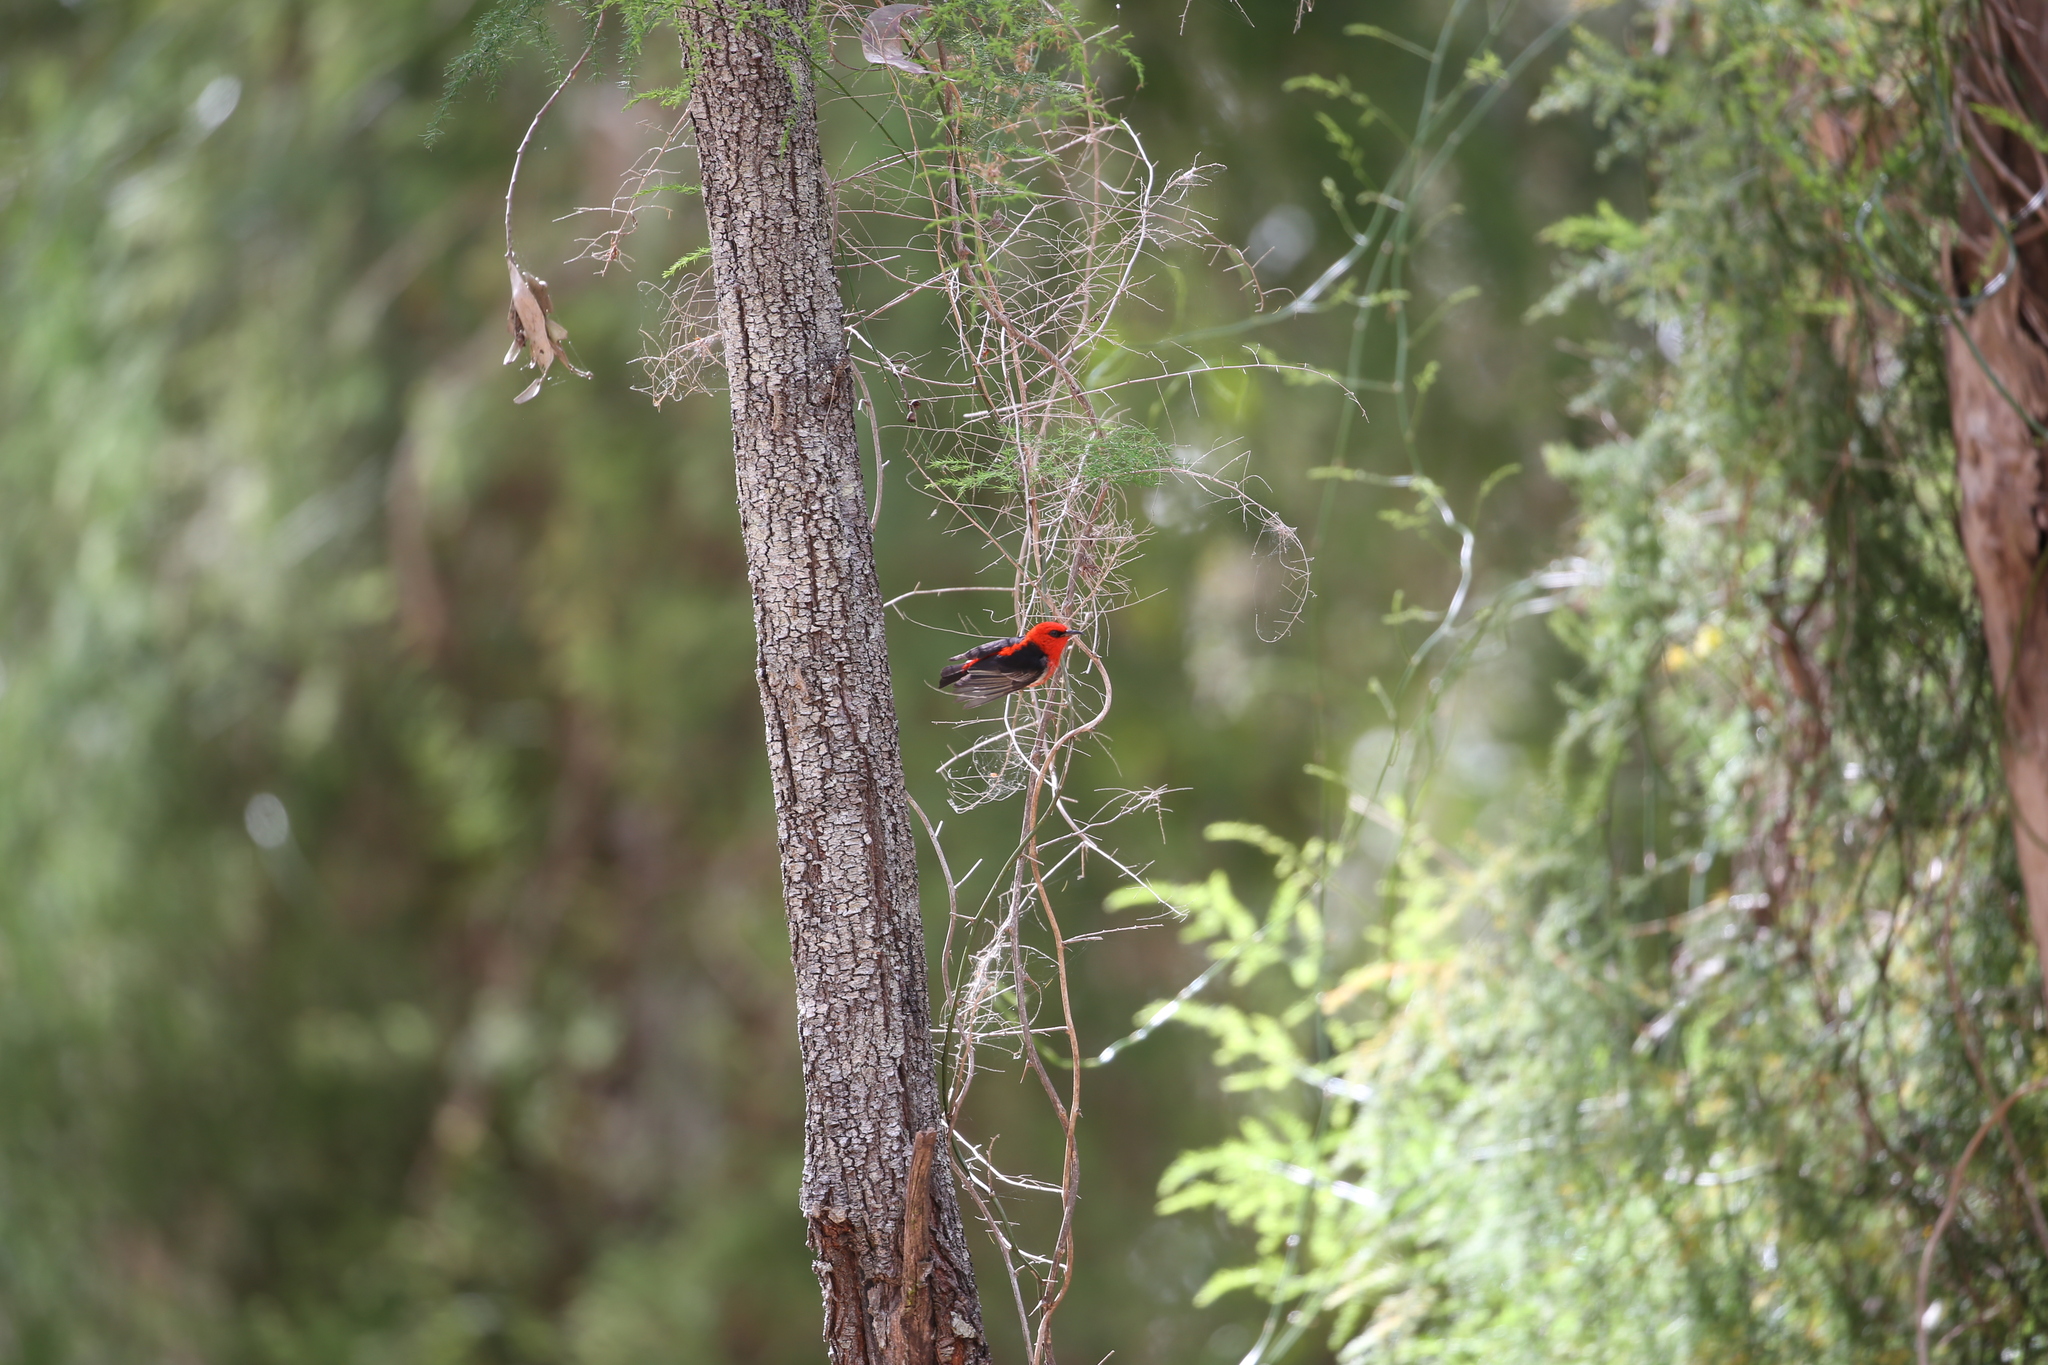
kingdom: Animalia
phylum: Chordata
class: Aves
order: Passeriformes
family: Meliphagidae
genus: Myzomela
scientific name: Myzomela sanguinolenta
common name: Scarlet myzomela
